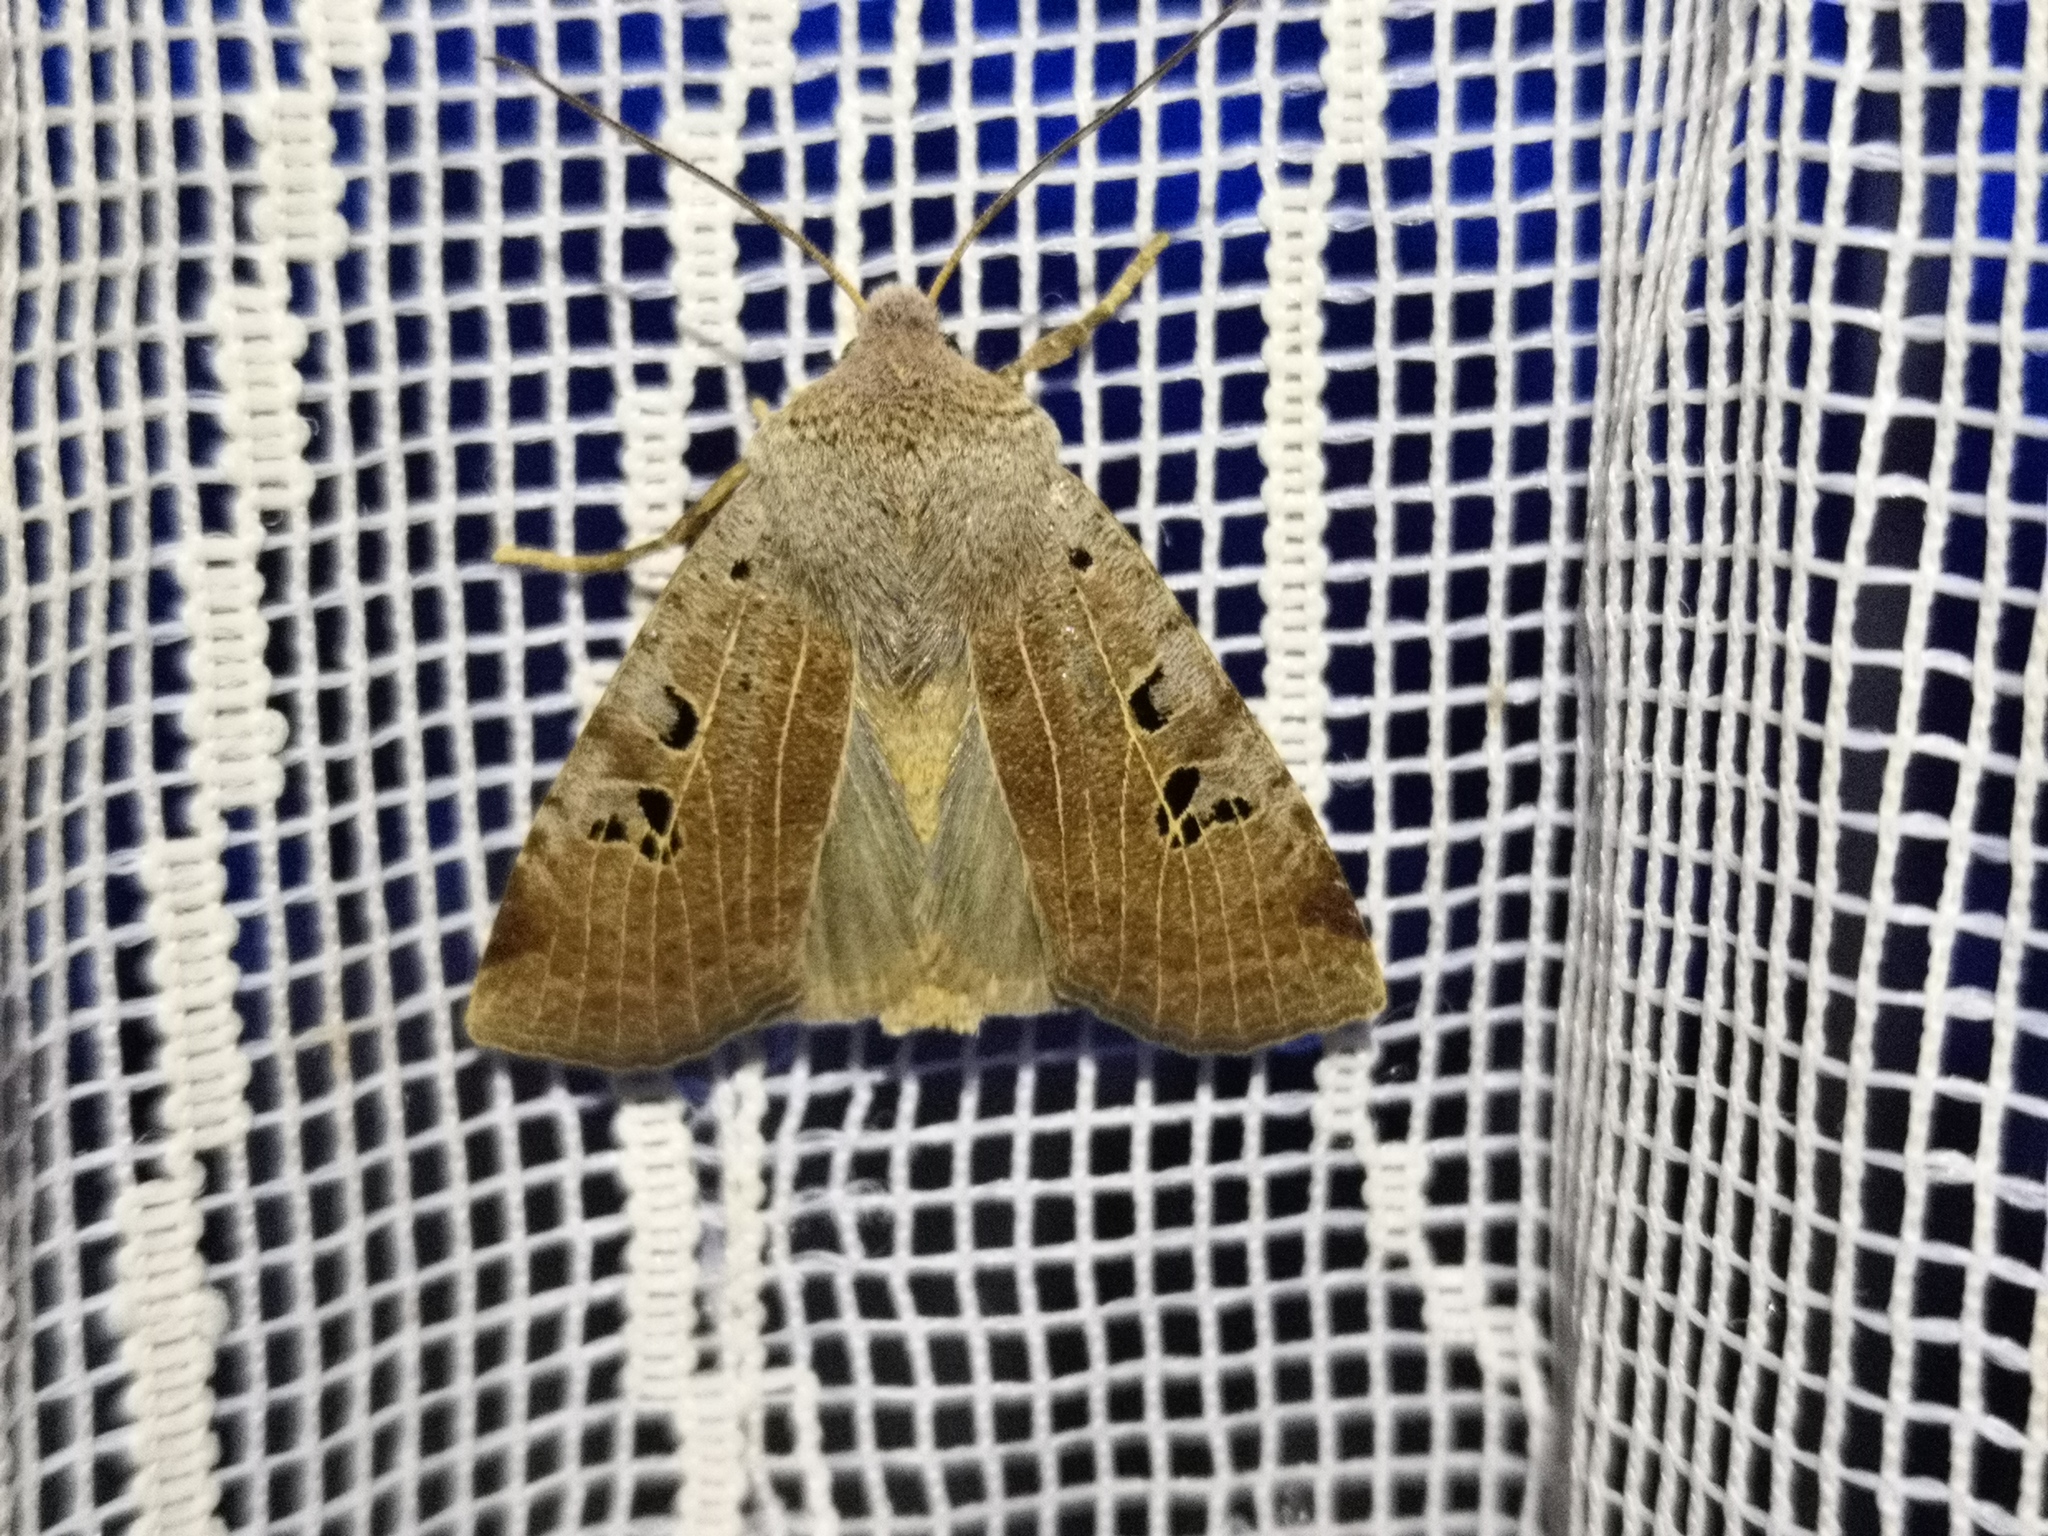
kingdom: Animalia
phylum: Arthropoda
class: Insecta
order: Lepidoptera
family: Noctuidae
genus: Conistra
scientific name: Conistra rubiginosa
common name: Black-spotted chestnut
